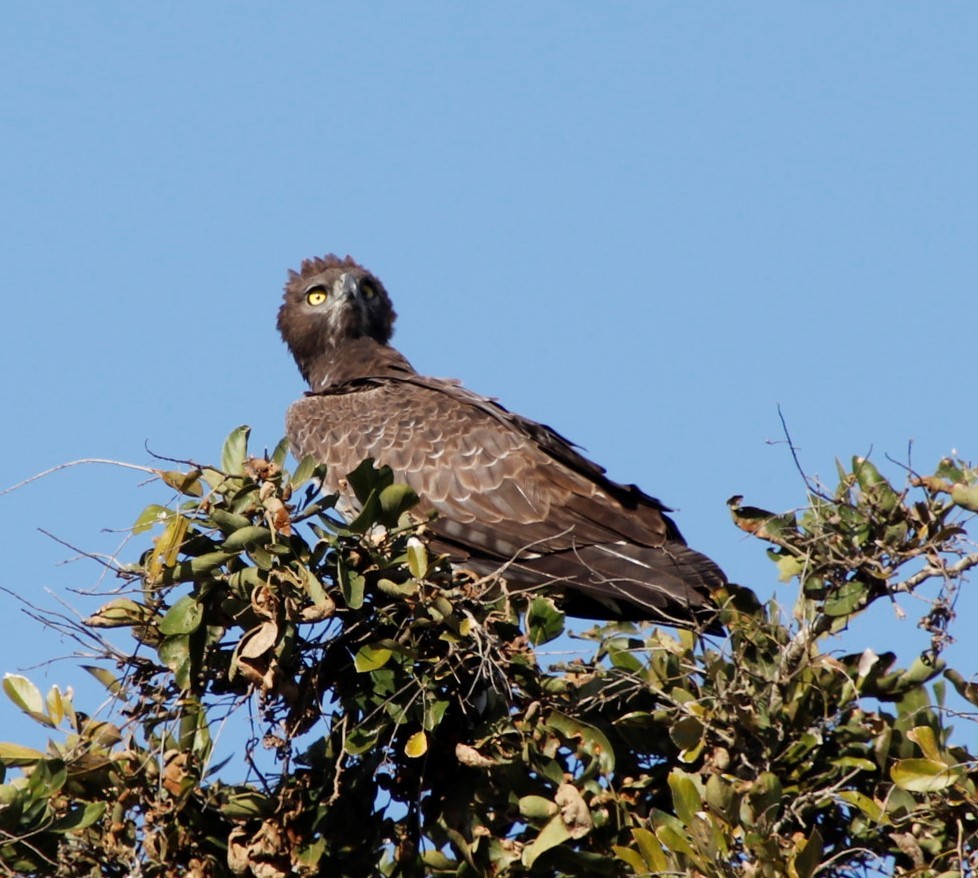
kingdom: Animalia
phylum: Chordata
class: Aves
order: Accipitriformes
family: Accipitridae
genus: Polemaetus
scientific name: Polemaetus bellicosus
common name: Martial eagle
